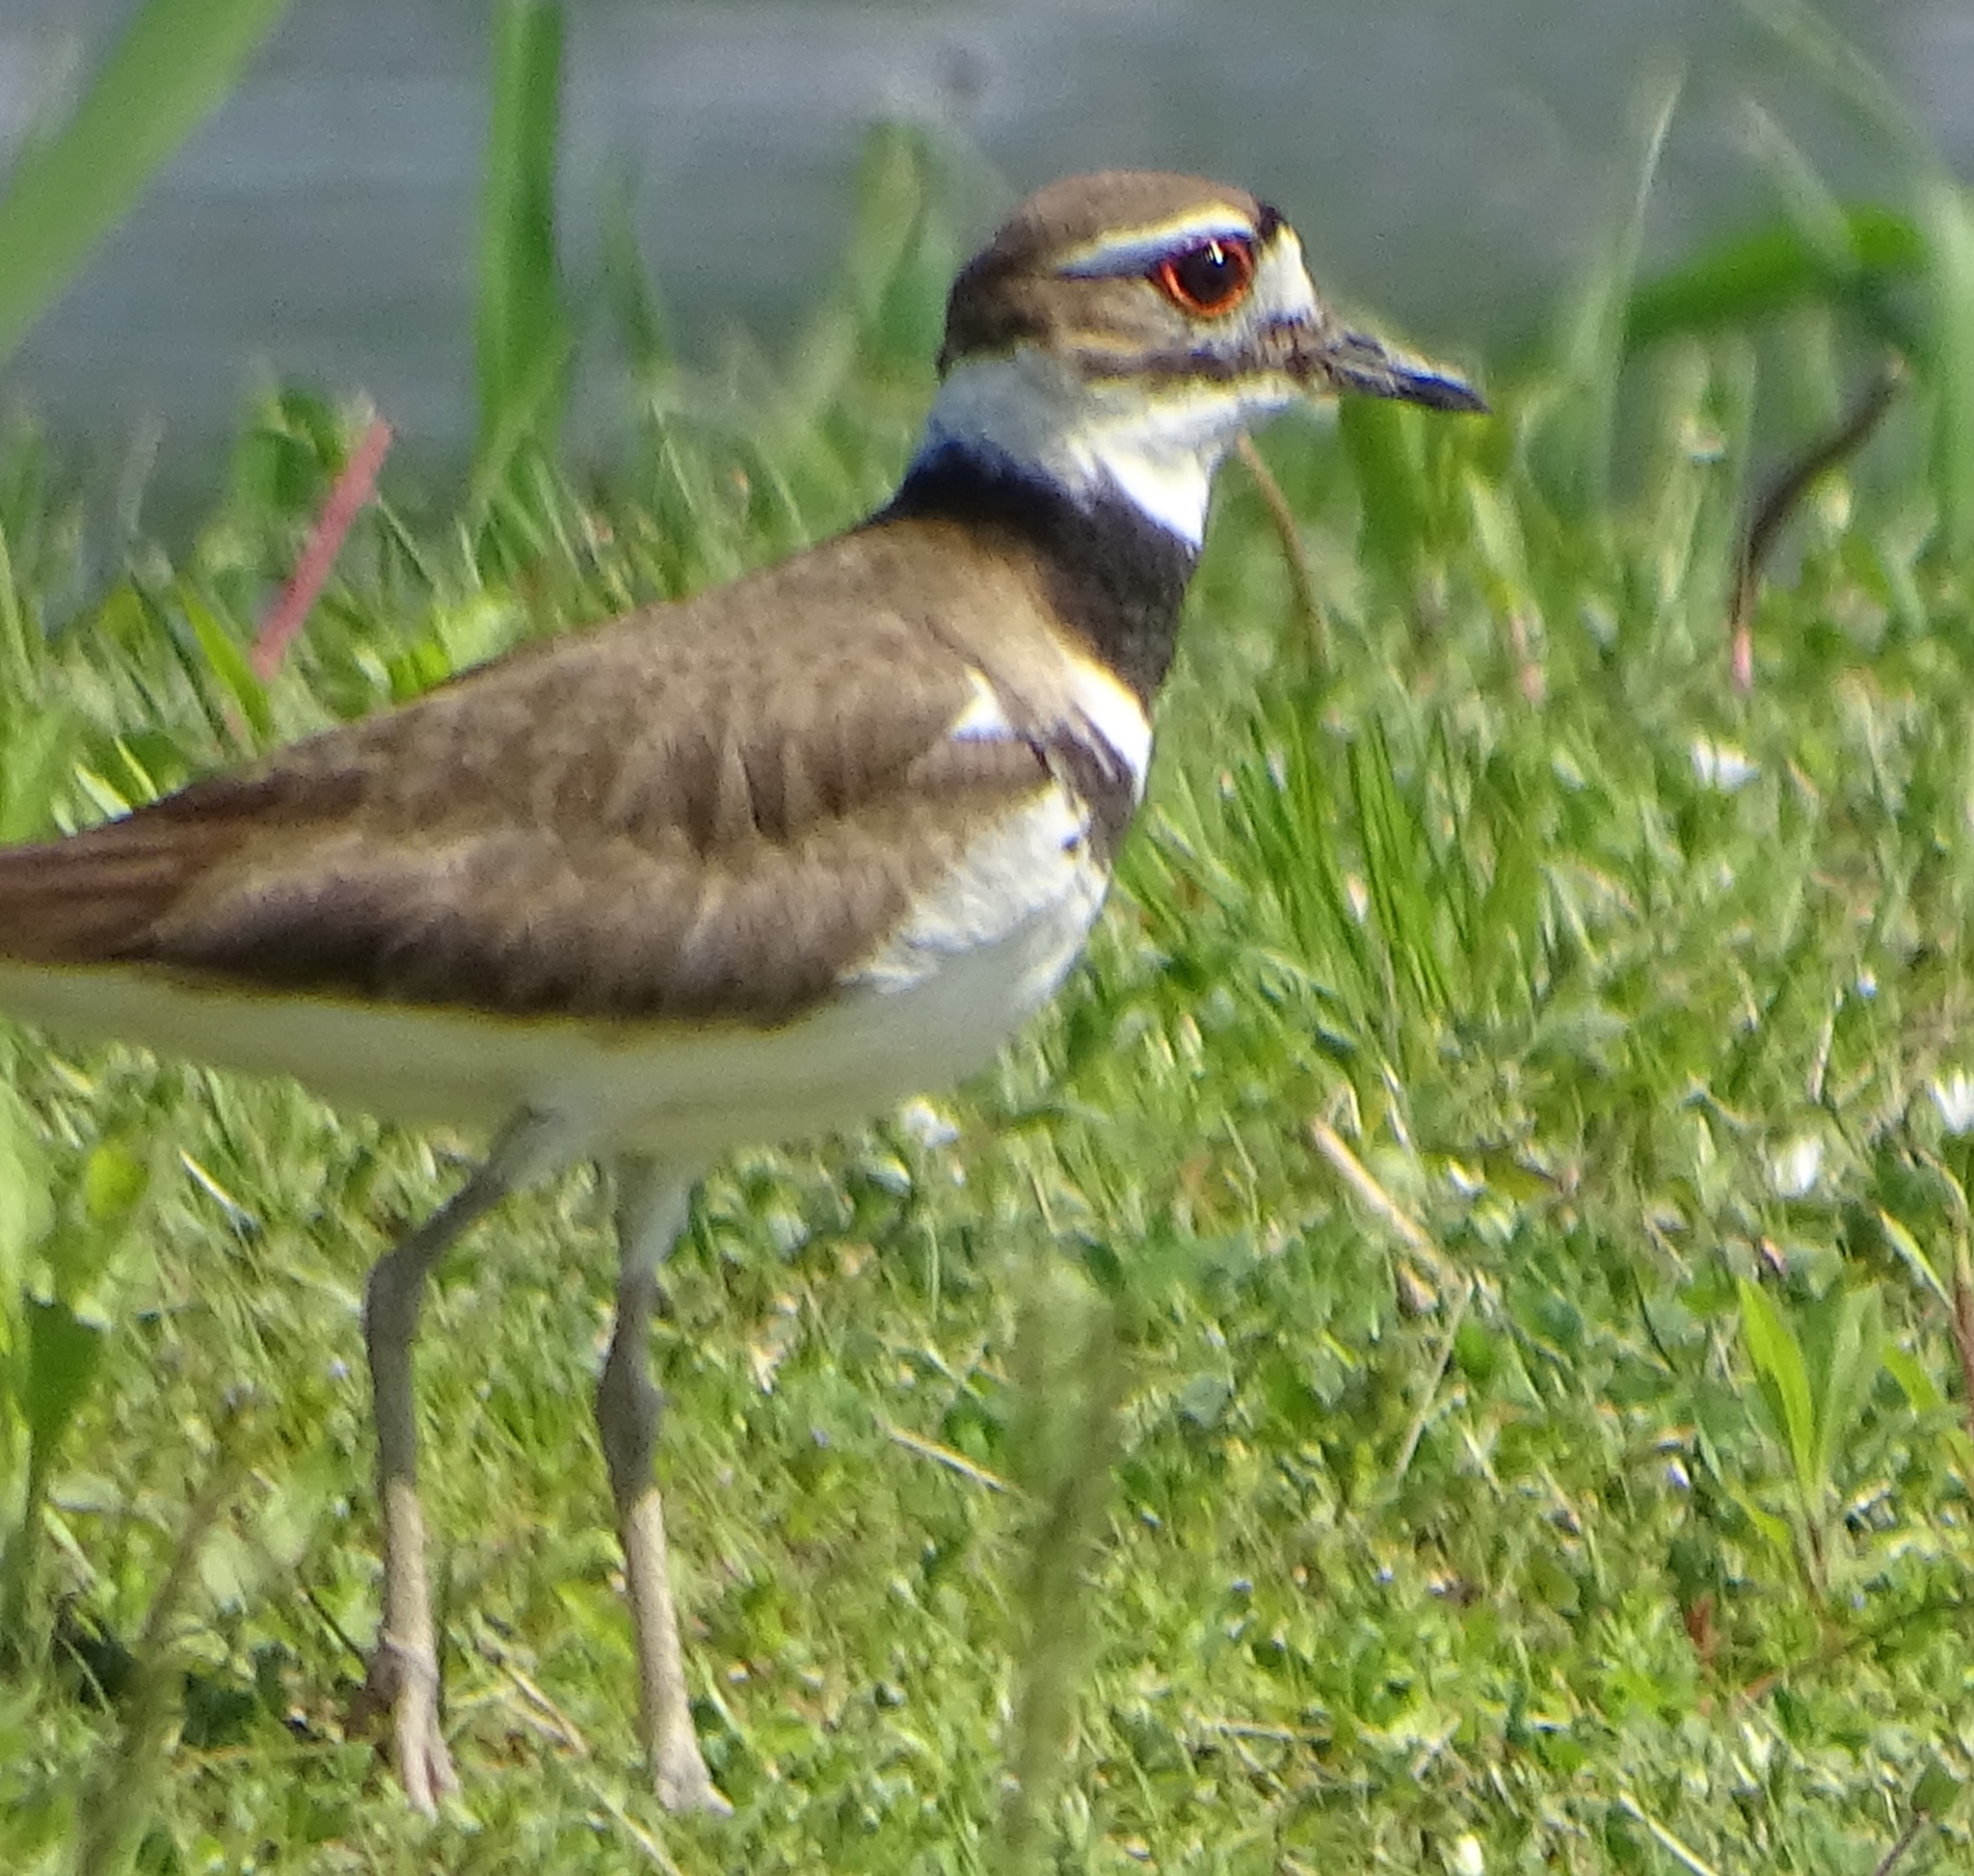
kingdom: Animalia
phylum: Chordata
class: Aves
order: Charadriiformes
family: Charadriidae
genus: Charadrius
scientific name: Charadrius vociferus
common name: Killdeer
